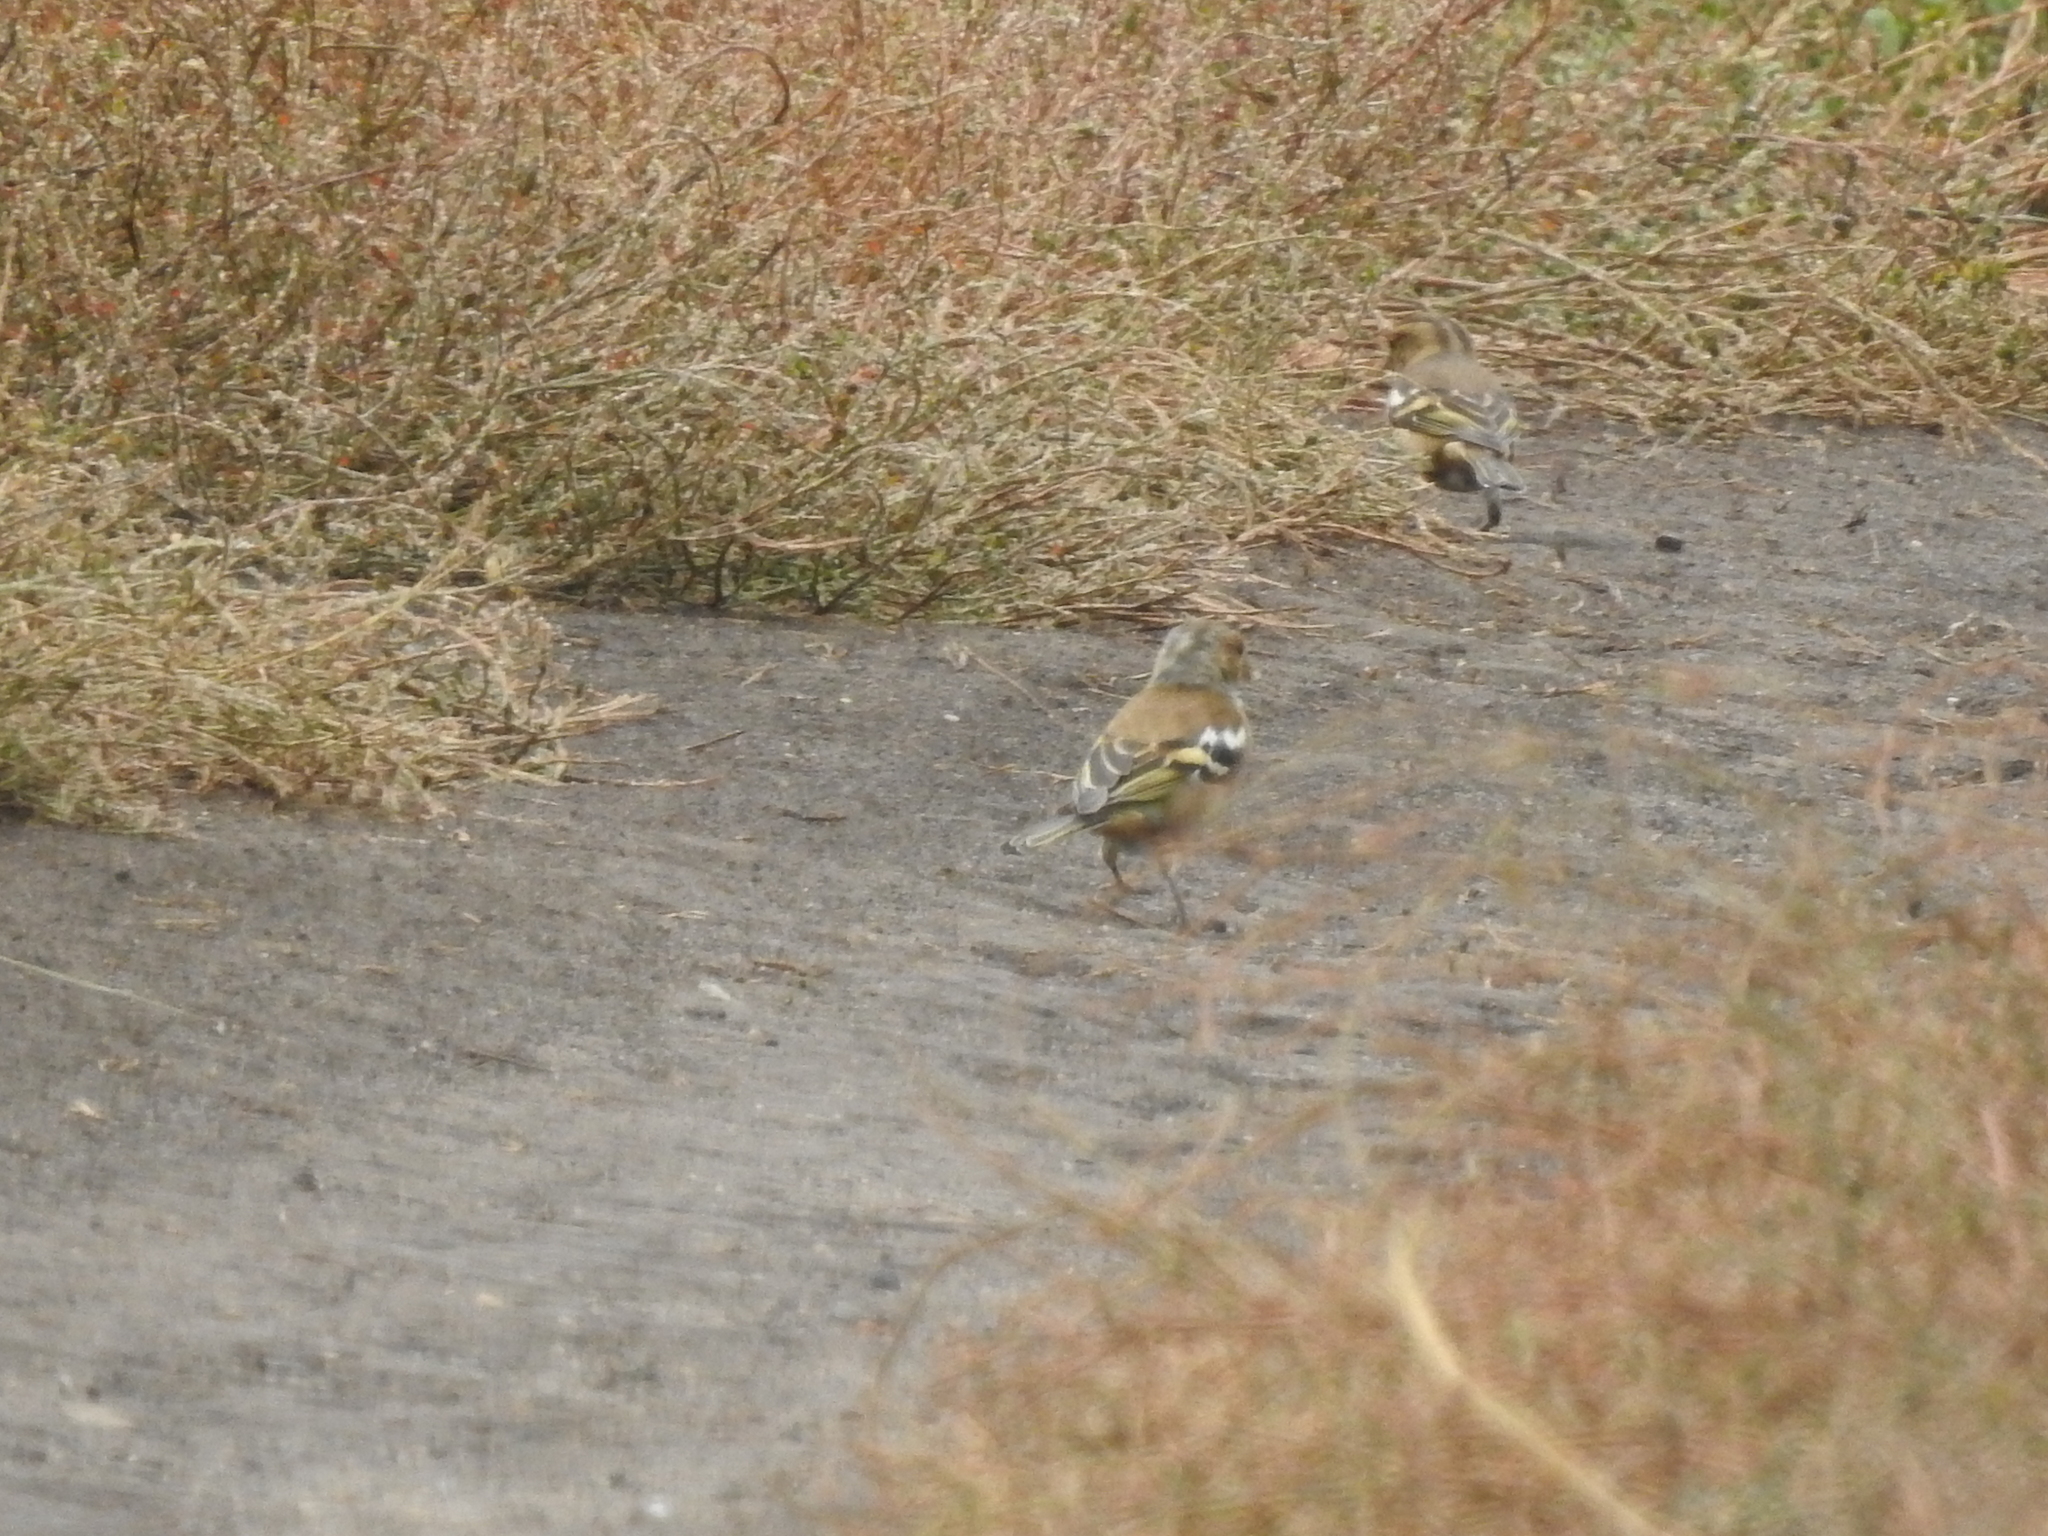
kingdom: Animalia
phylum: Chordata
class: Aves
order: Passeriformes
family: Fringillidae
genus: Fringilla
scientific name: Fringilla coelebs
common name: Common chaffinch
